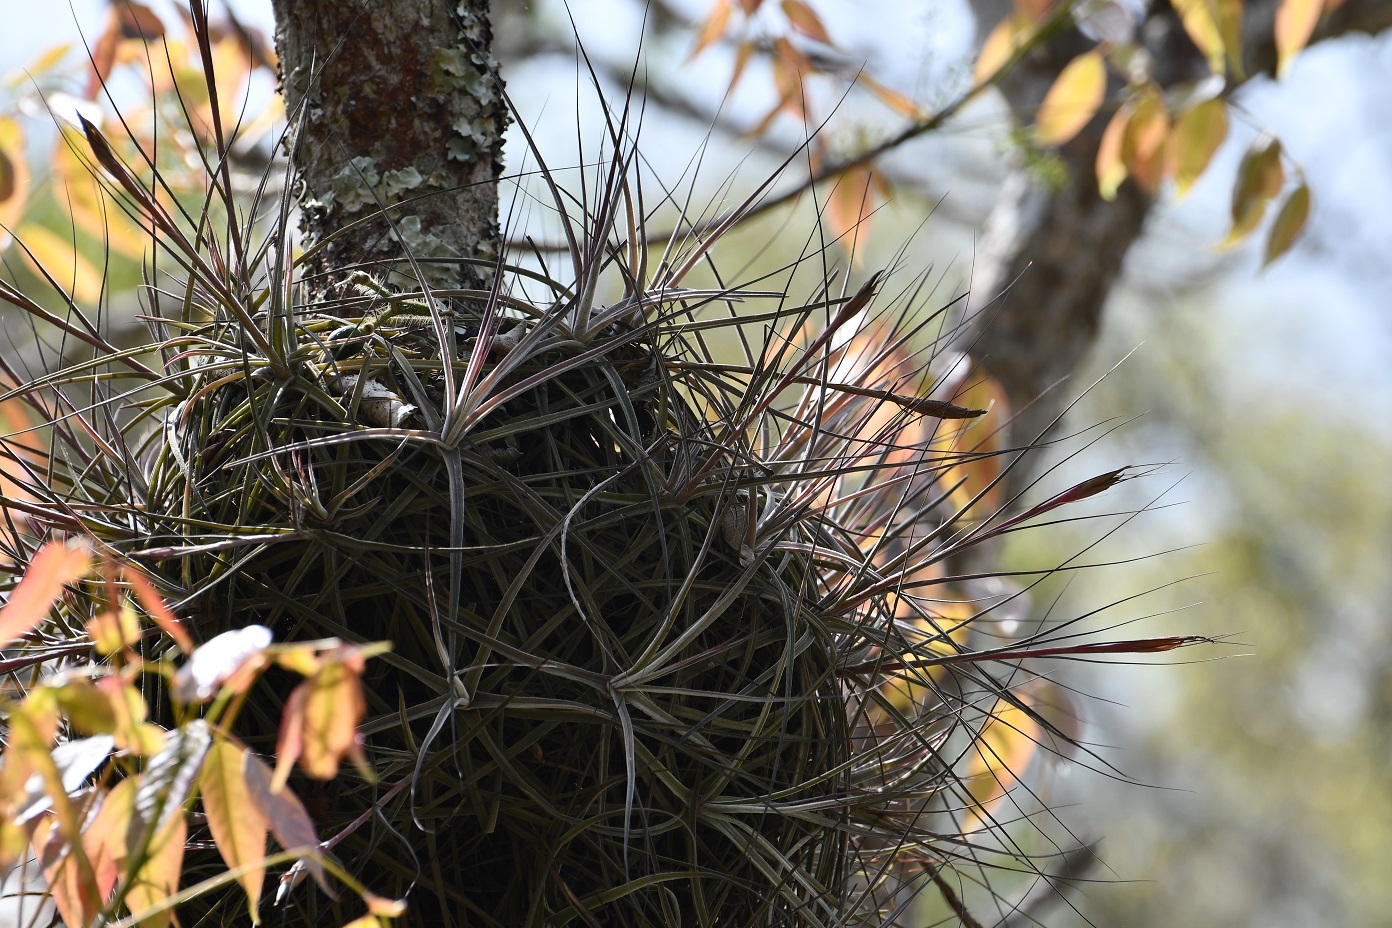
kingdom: Plantae
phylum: Tracheophyta
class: Liliopsida
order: Poales
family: Bromeliaceae
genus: Tillandsia
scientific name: Tillandsia schiedeana
